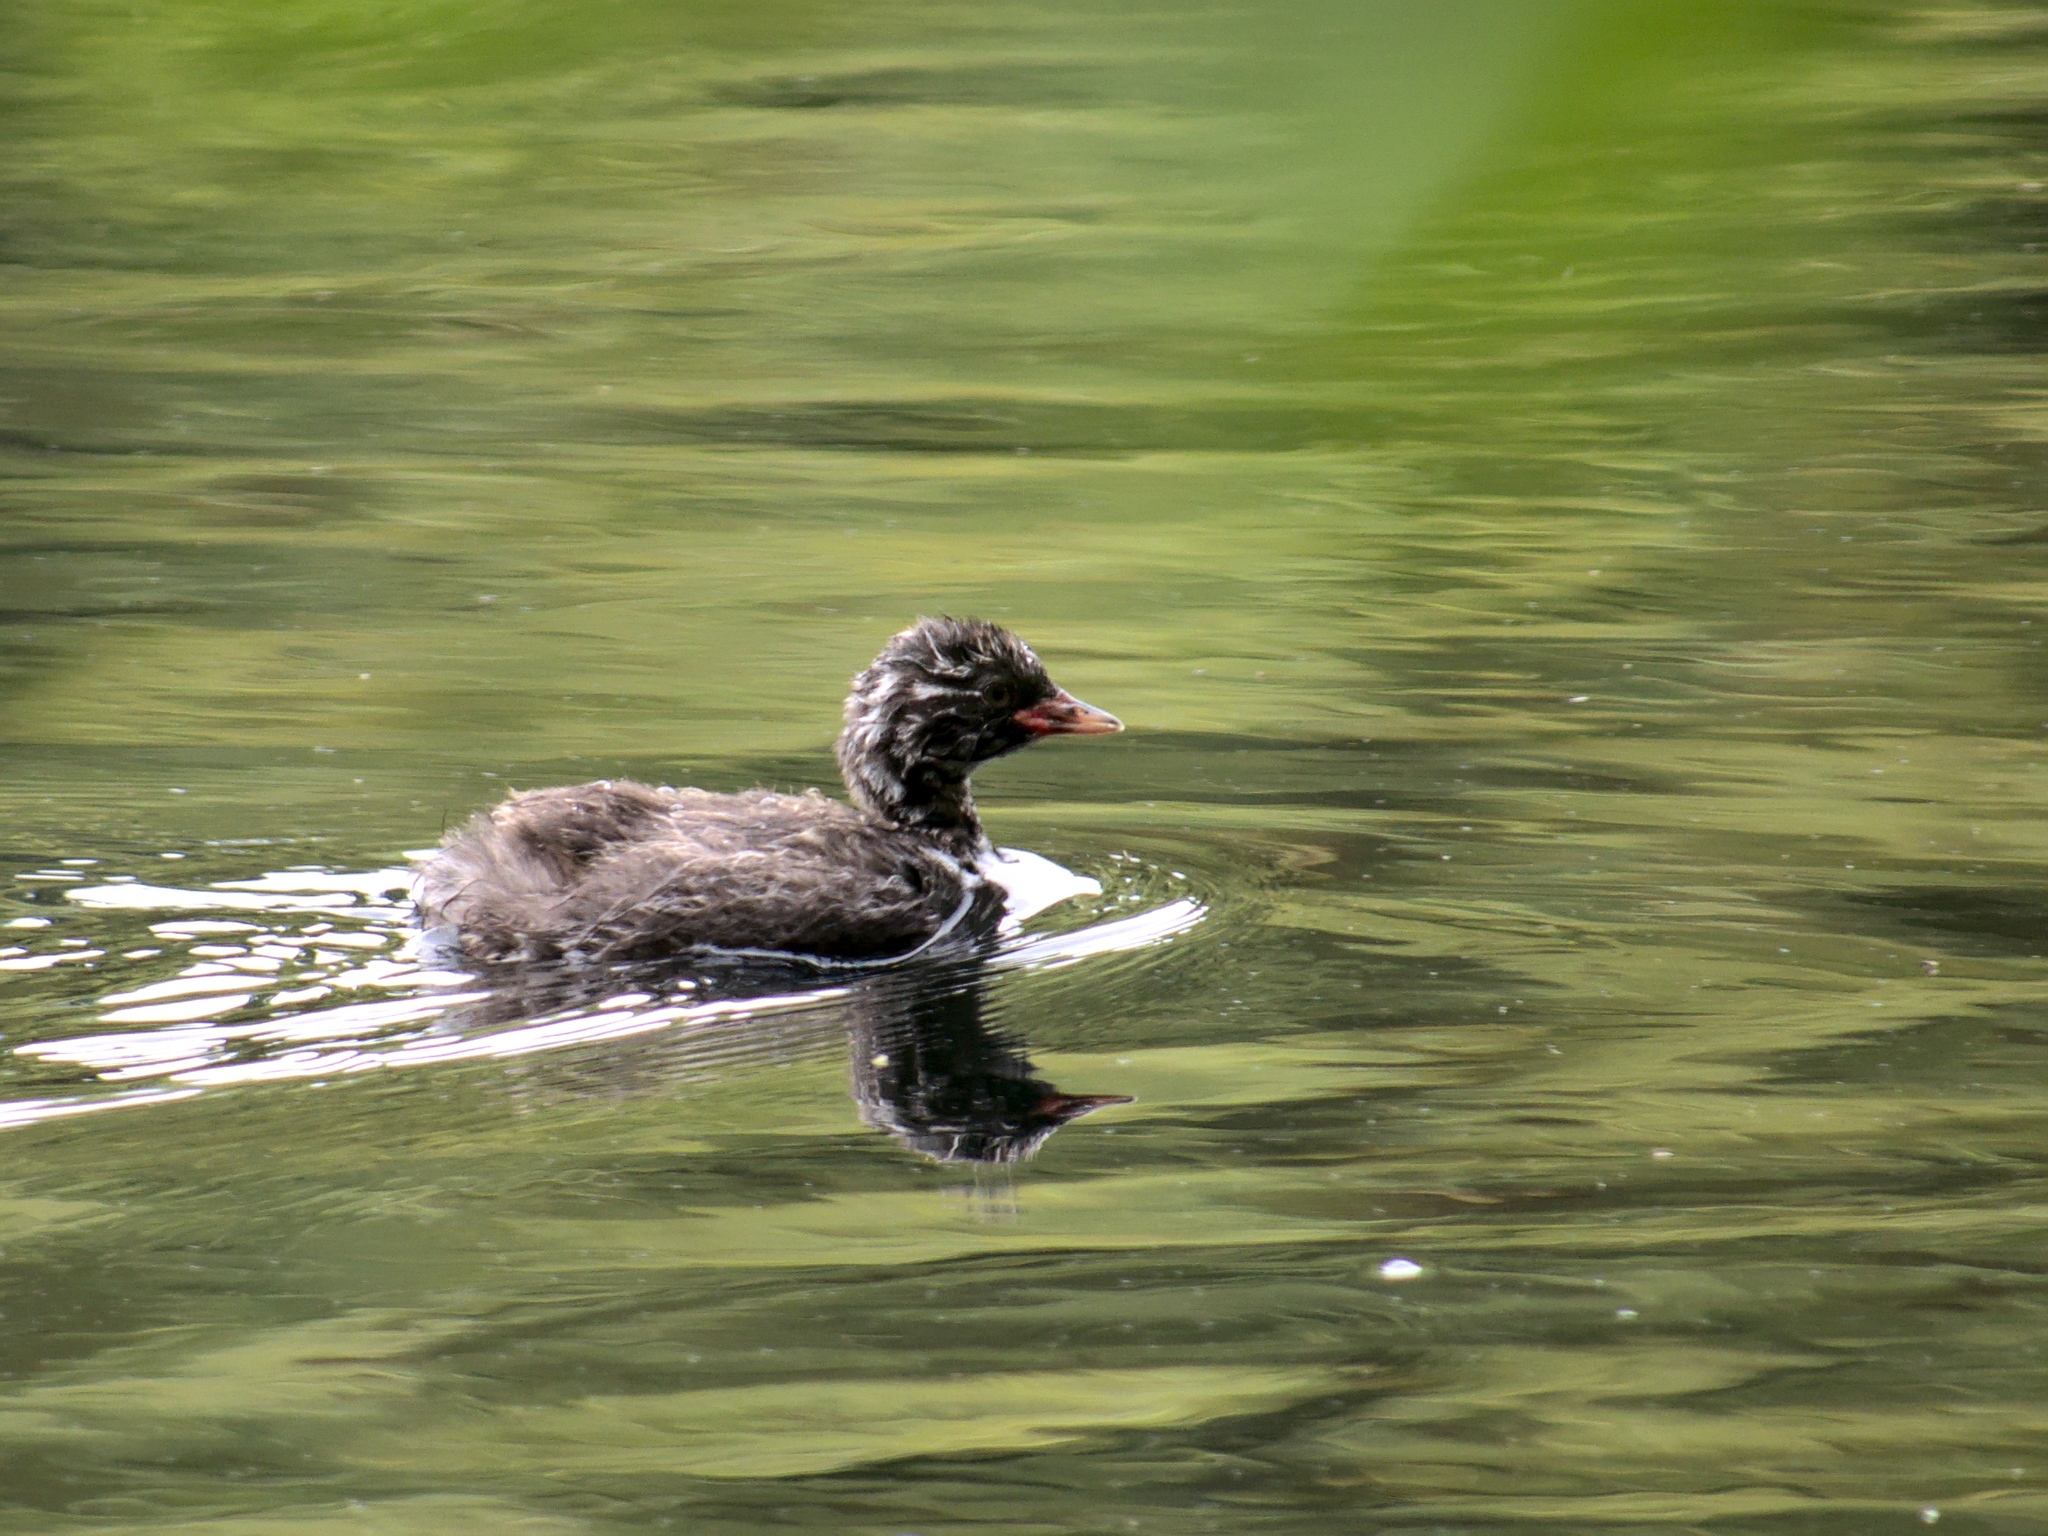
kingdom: Animalia
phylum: Chordata
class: Aves
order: Podicipediformes
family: Podicipedidae
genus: Tachybaptus
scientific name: Tachybaptus ruficollis
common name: Little grebe
